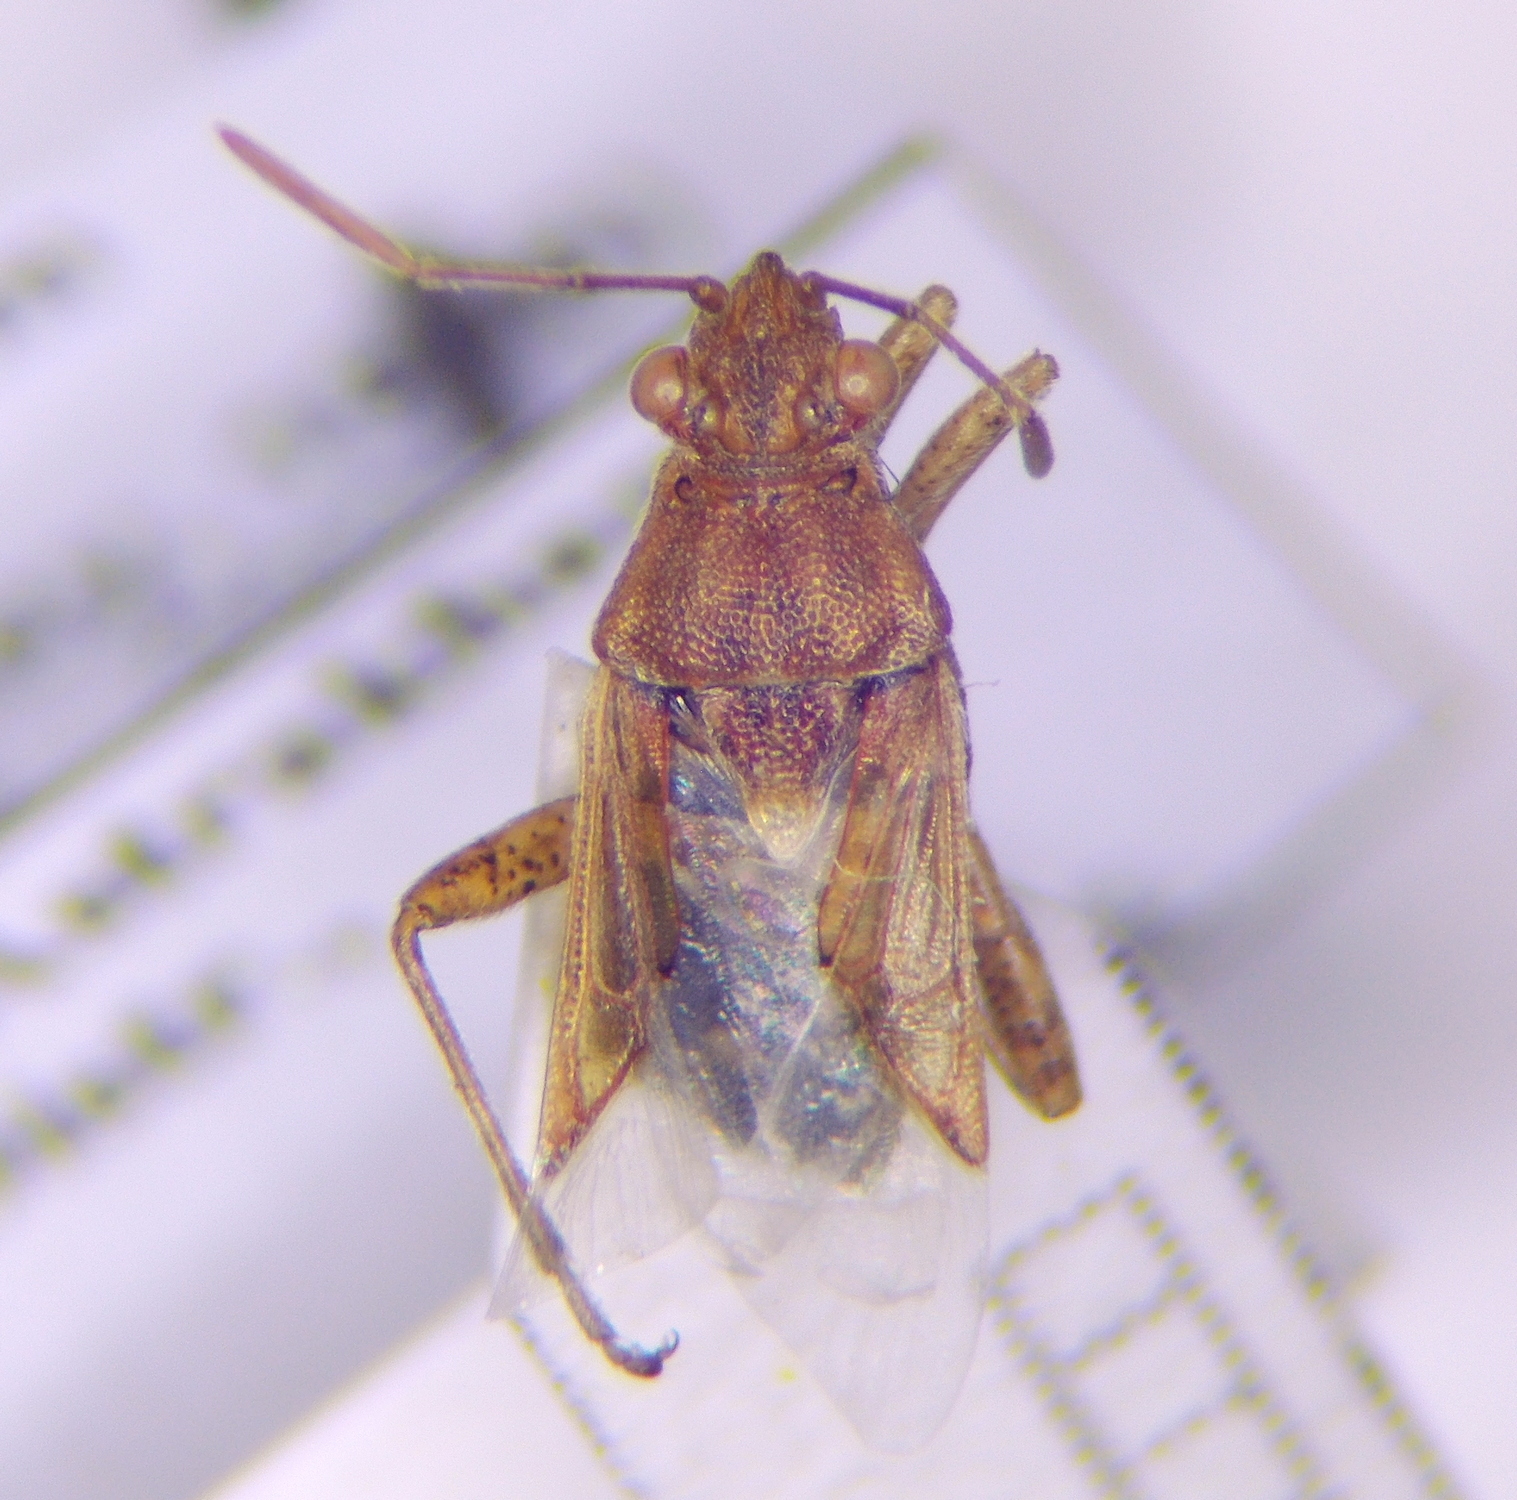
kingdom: Animalia
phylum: Arthropoda
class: Insecta
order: Hemiptera
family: Rhopalidae
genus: Stictopleurus
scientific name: Stictopleurus subtomentosus
